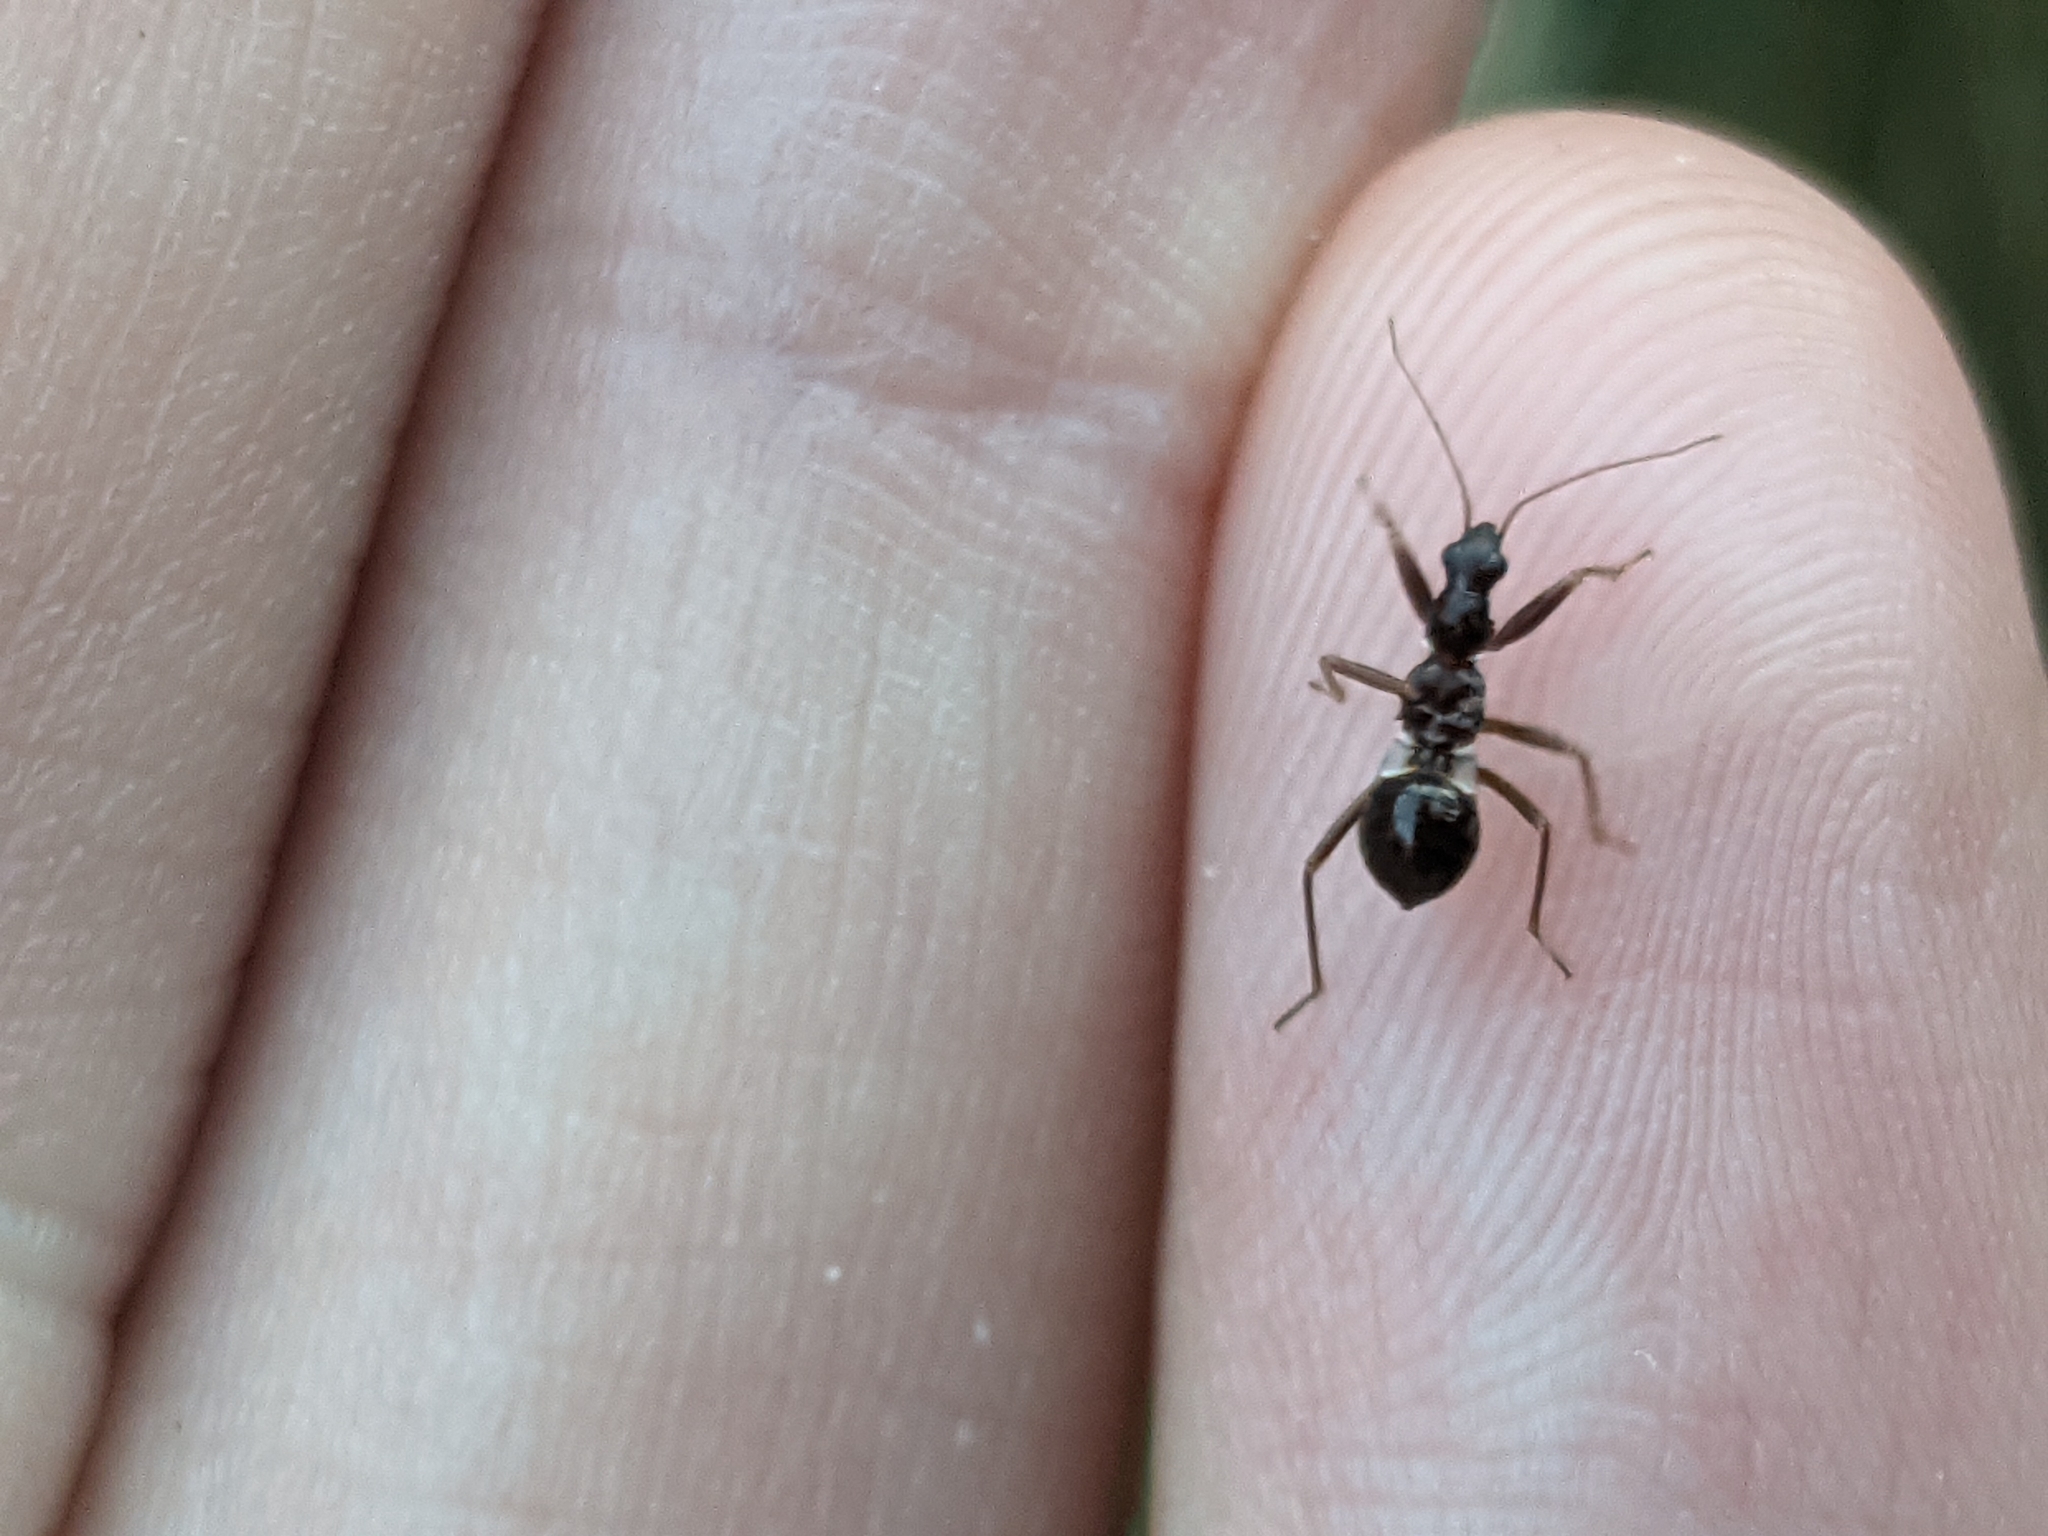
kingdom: Animalia
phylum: Arthropoda
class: Insecta
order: Hemiptera
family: Nabidae
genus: Himacerus
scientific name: Himacerus mirmicoides
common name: Ant damsel bug
